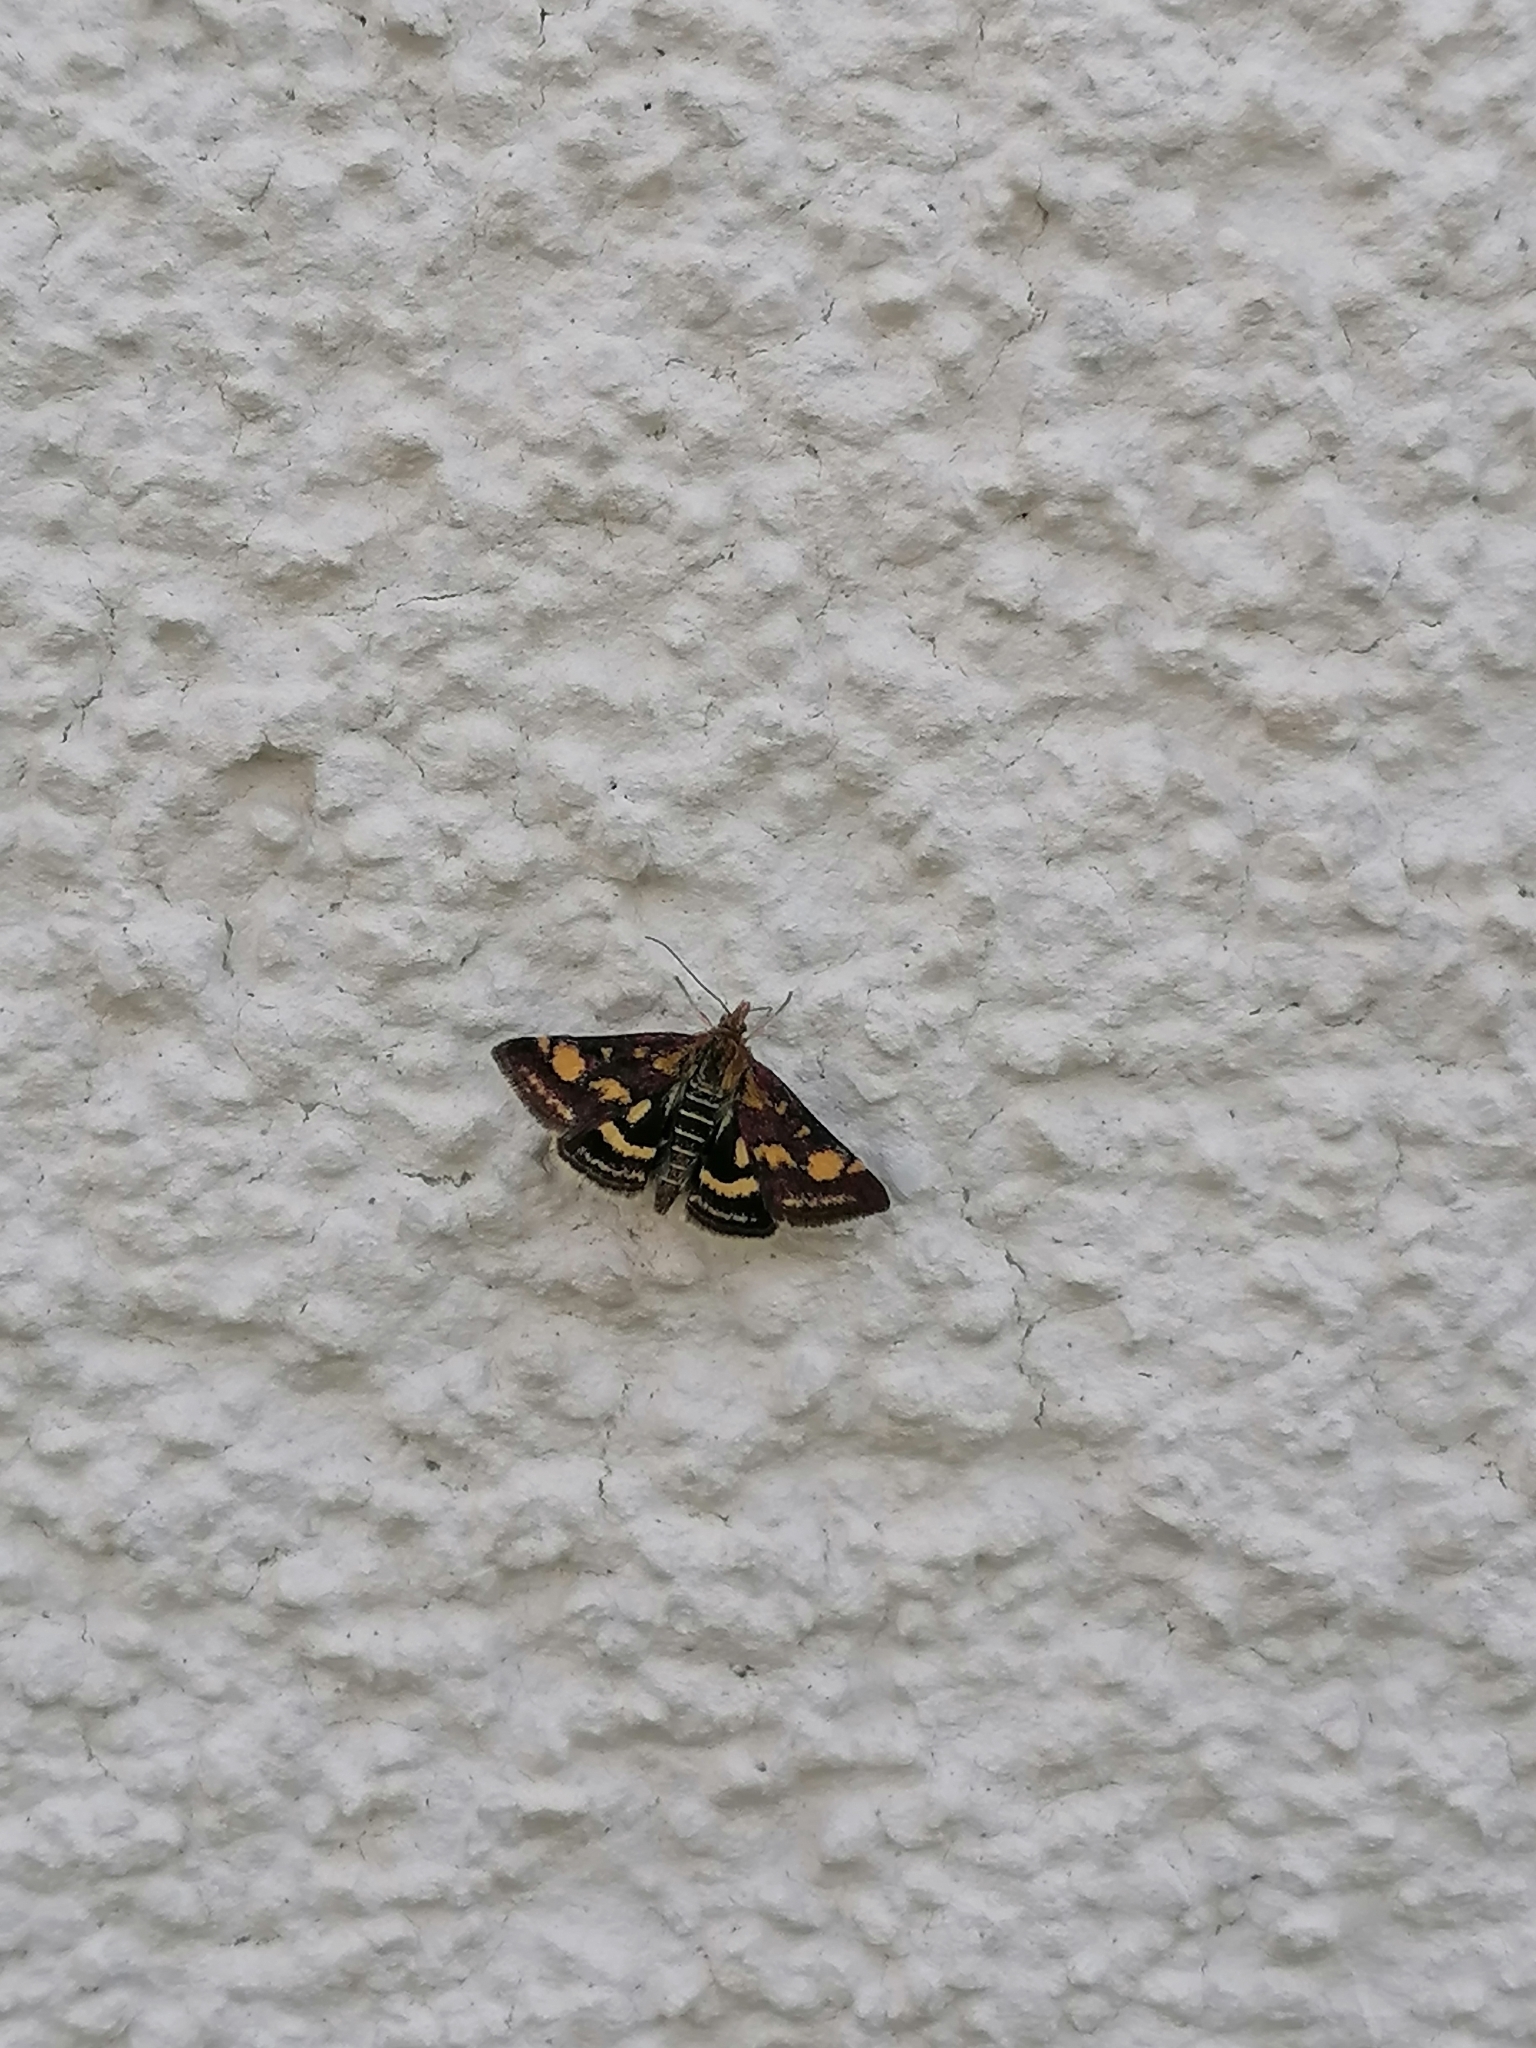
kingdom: Animalia
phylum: Arthropoda
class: Insecta
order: Lepidoptera
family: Crambidae
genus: Pyrausta
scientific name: Pyrausta purpuralis
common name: Common purple & gold
